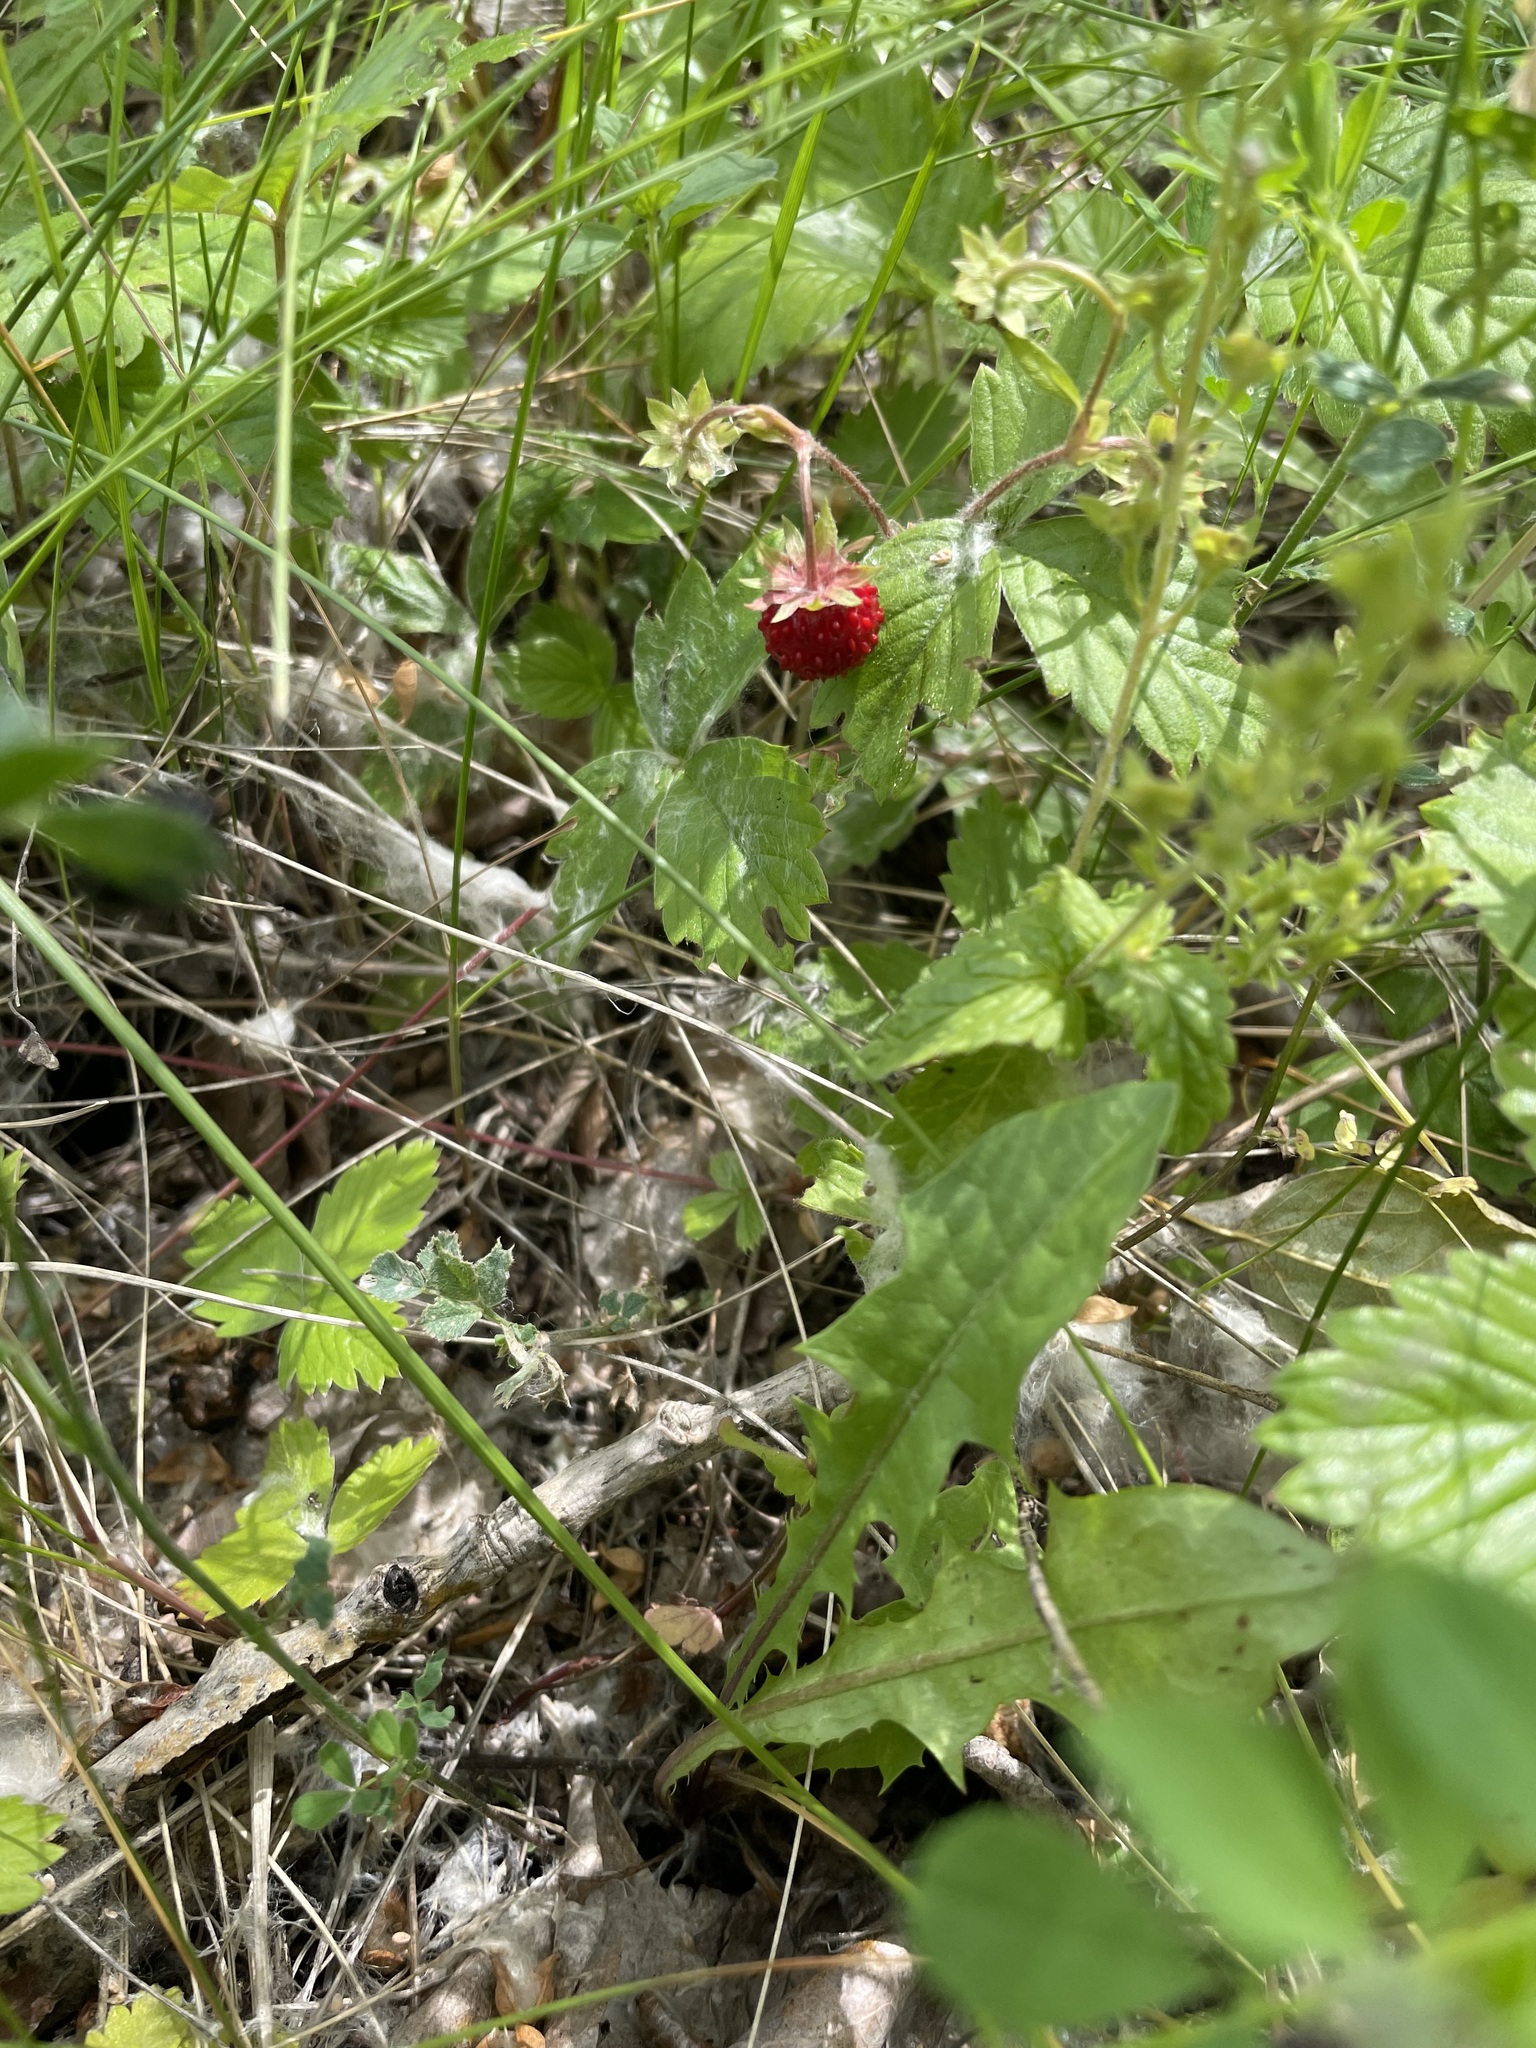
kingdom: Plantae
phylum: Tracheophyta
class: Magnoliopsida
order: Rosales
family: Rosaceae
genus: Fragaria
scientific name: Fragaria vesca
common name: Wild strawberry
